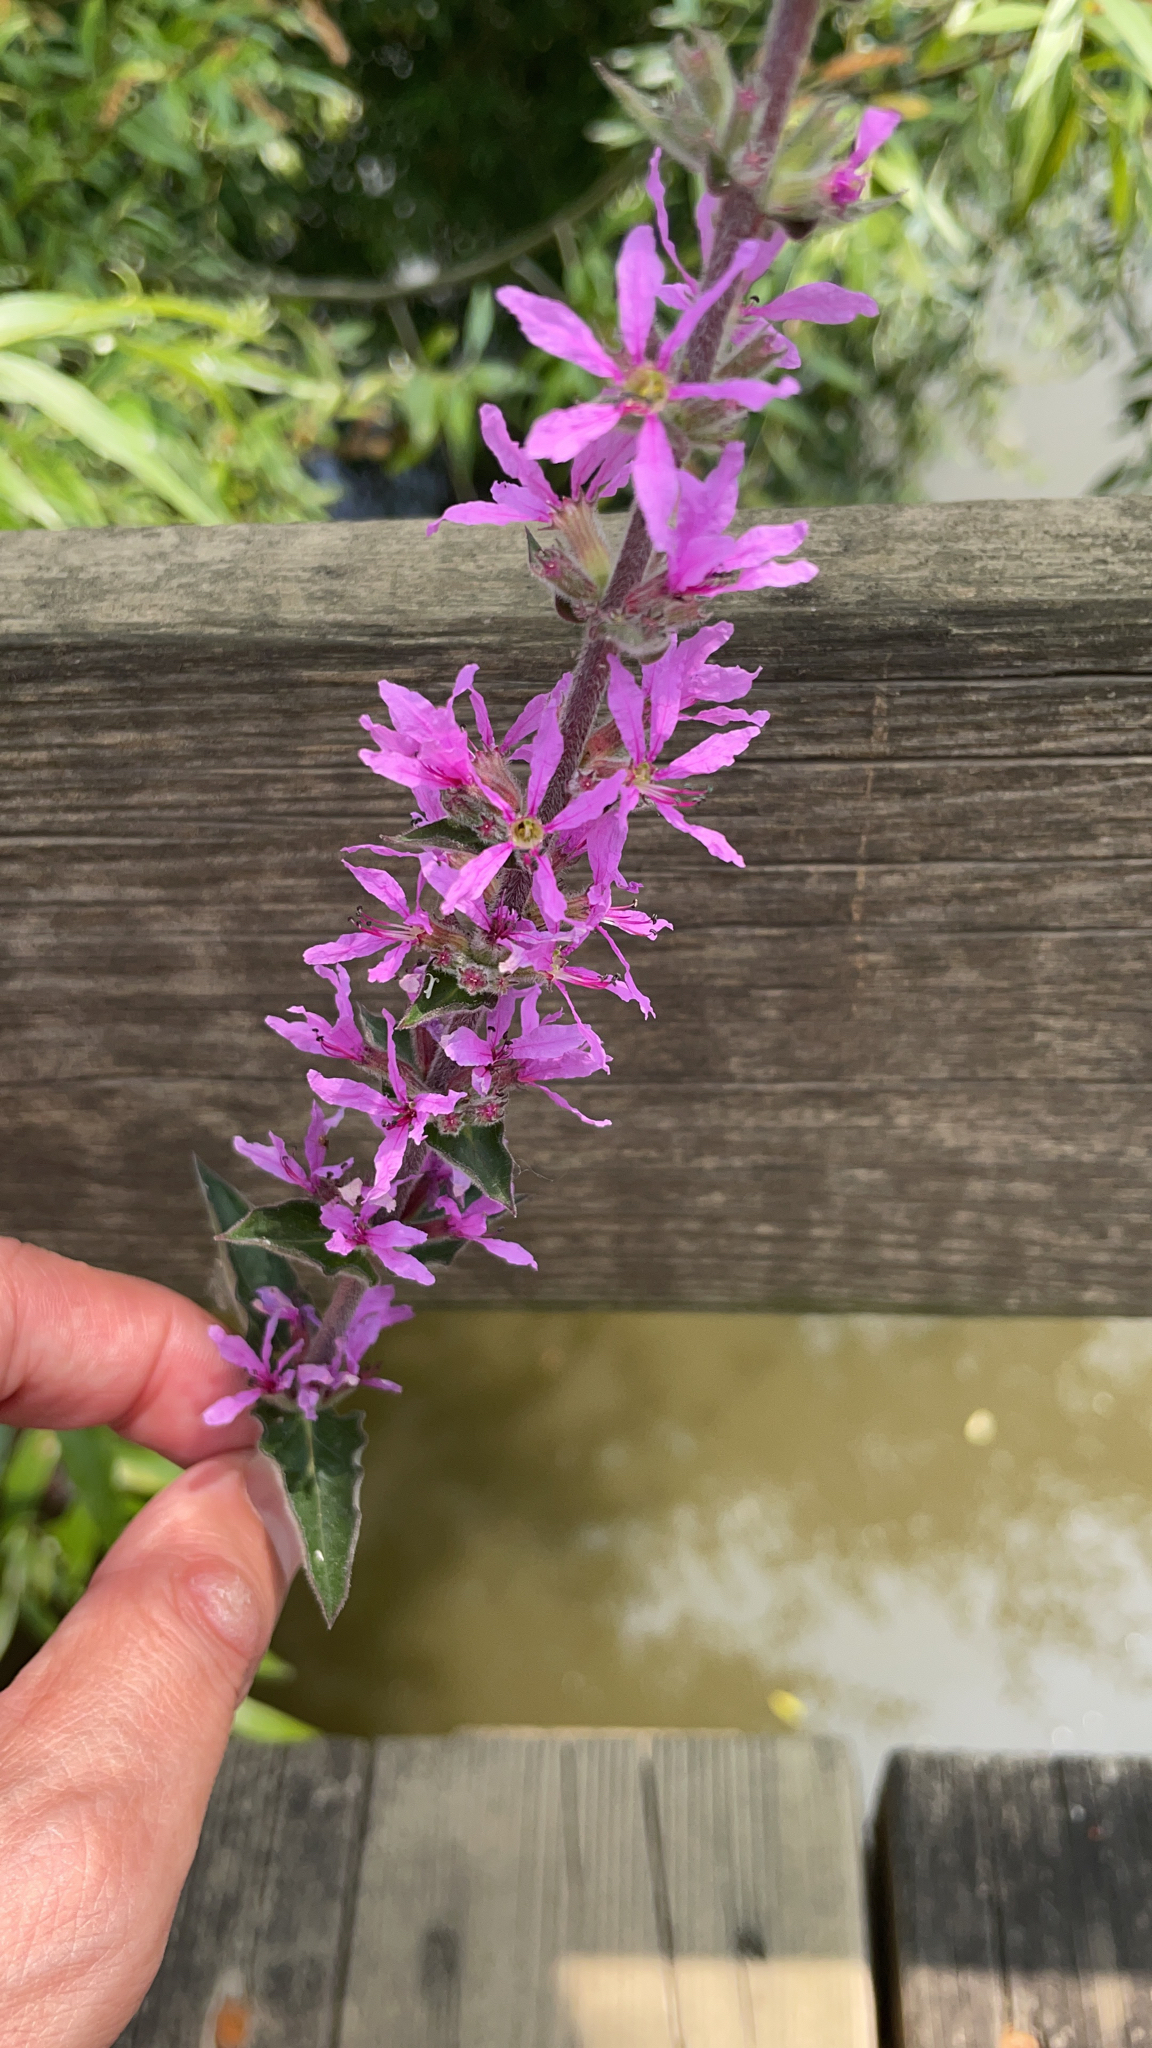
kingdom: Plantae
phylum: Tracheophyta
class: Magnoliopsida
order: Myrtales
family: Lythraceae
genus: Lythrum
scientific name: Lythrum salicaria
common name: Purple loosestrife
